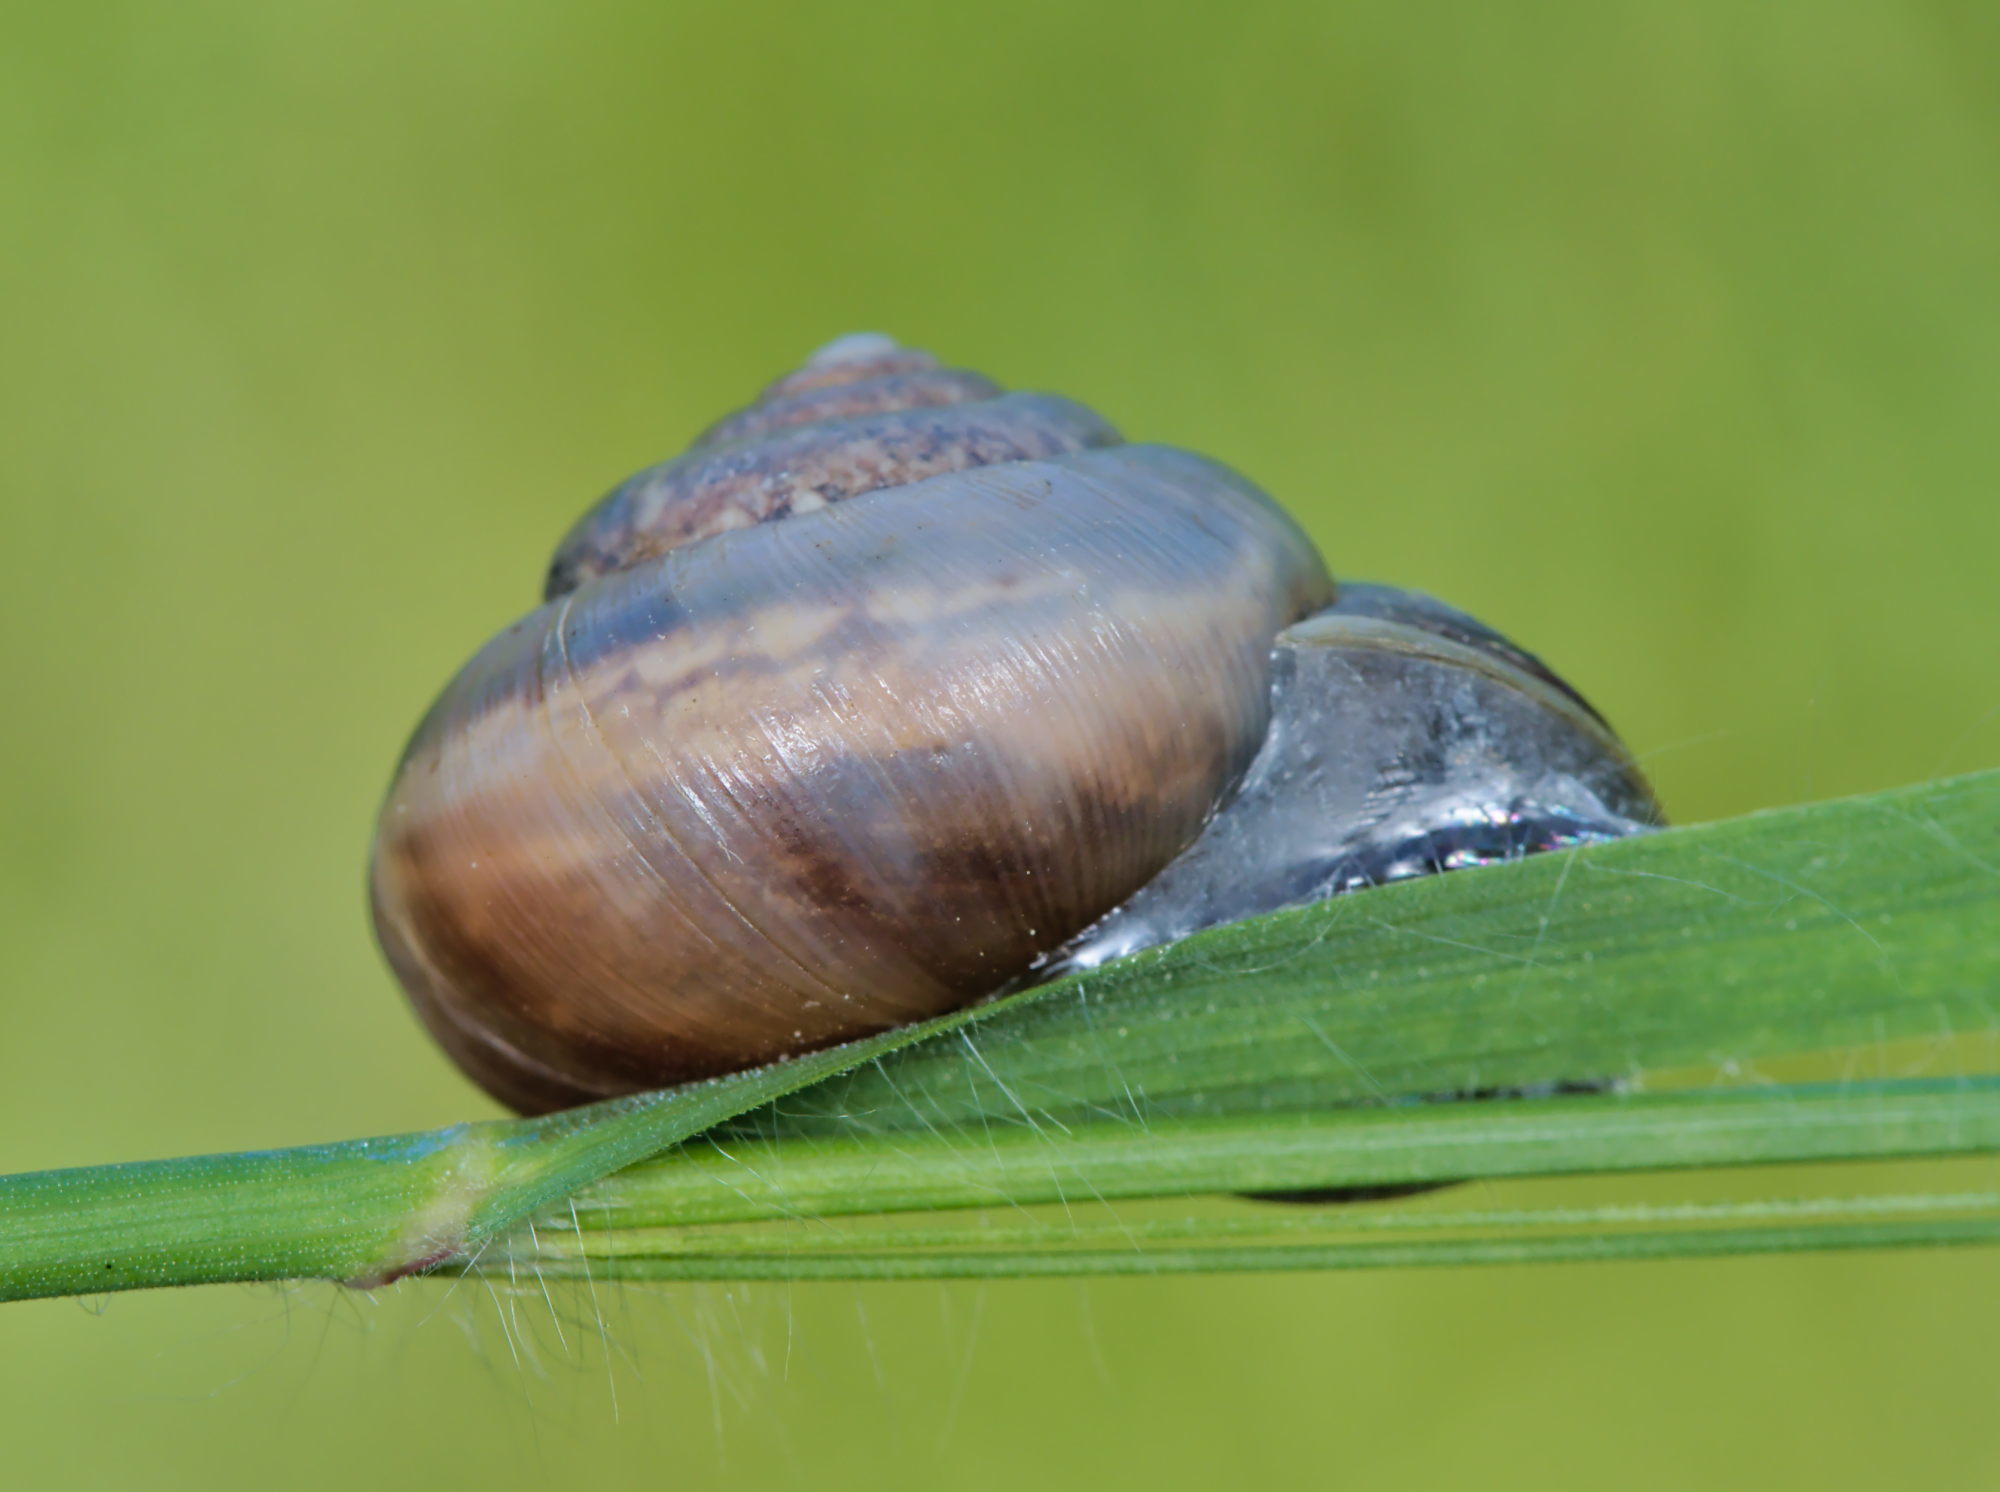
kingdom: Animalia
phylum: Mollusca
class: Gastropoda
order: Stylommatophora
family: Hygromiidae
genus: Monacha
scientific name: Monacha cantiana
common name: Kentish snail
